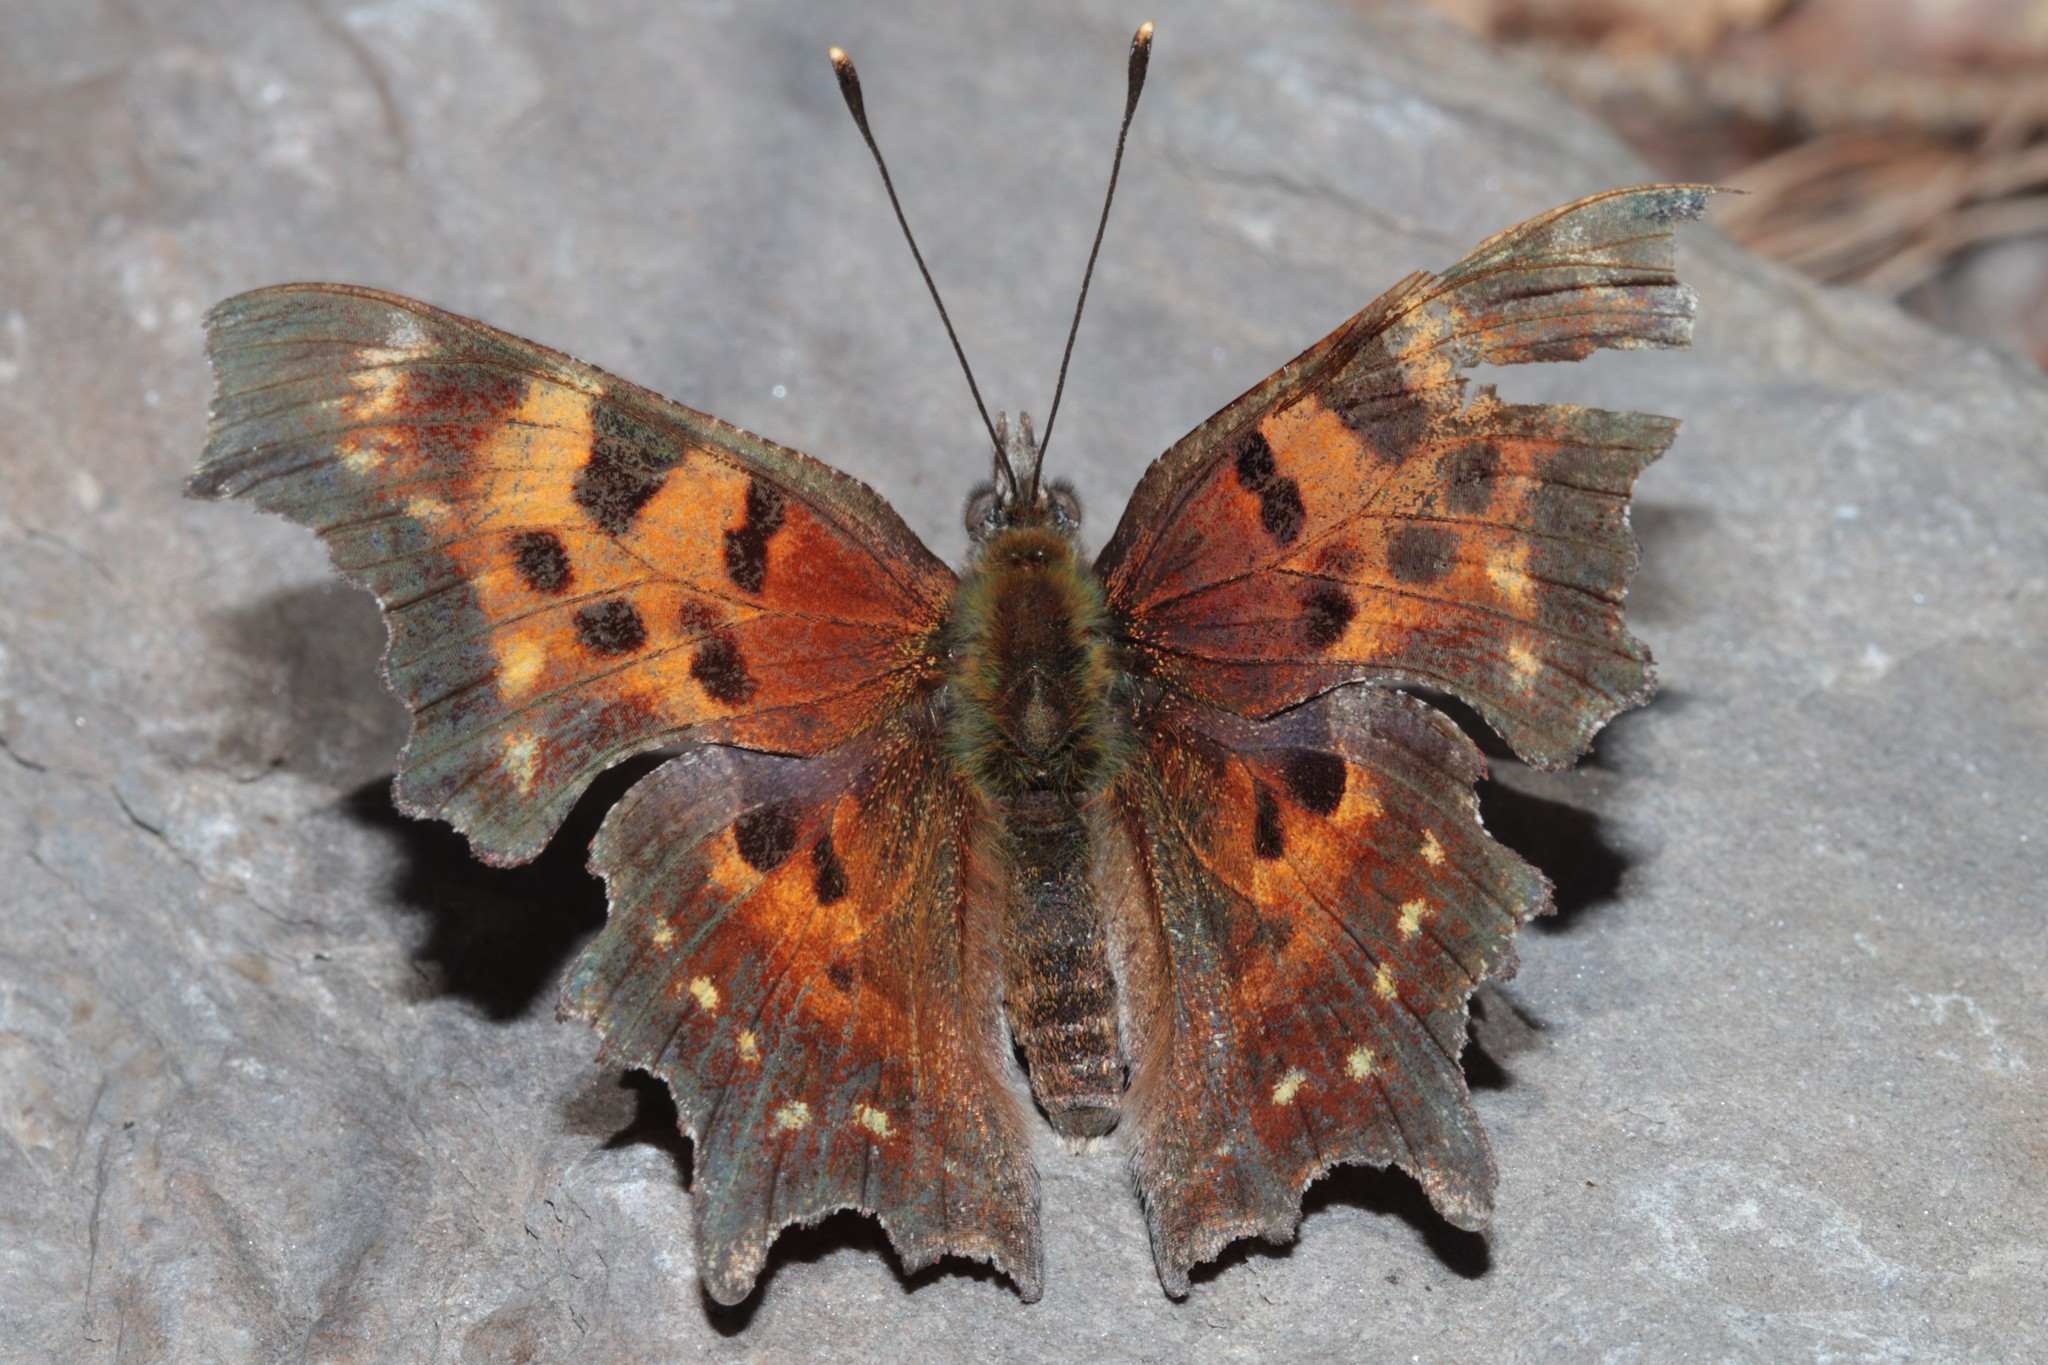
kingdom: Animalia
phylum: Arthropoda
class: Insecta
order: Lepidoptera
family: Nymphalidae
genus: Polygonia
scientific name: Polygonia faunus
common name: Green comma
